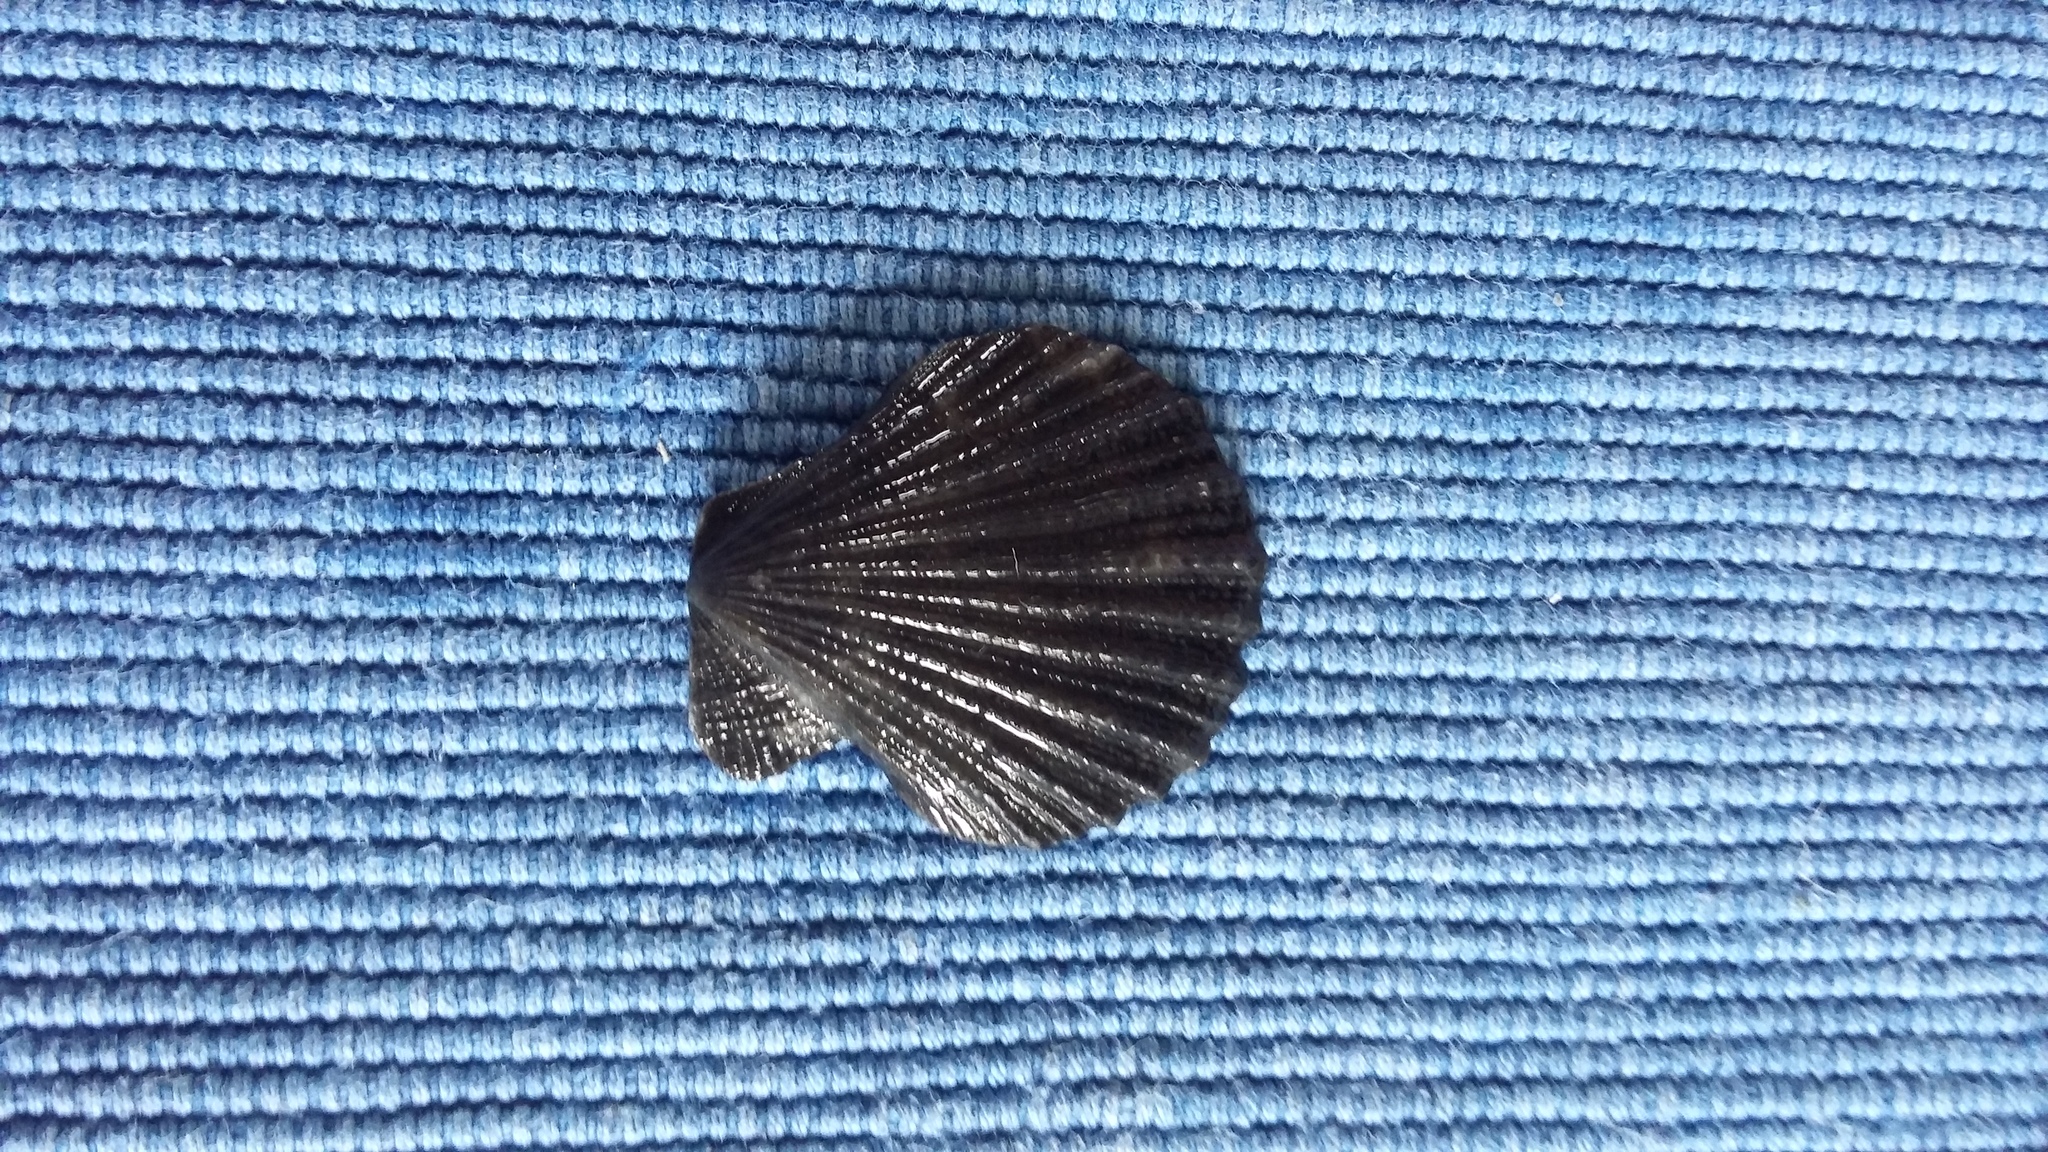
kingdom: Animalia
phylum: Mollusca
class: Bivalvia
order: Pectinida
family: Pectinidae
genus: Talochlamys
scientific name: Talochlamys zelandiae
